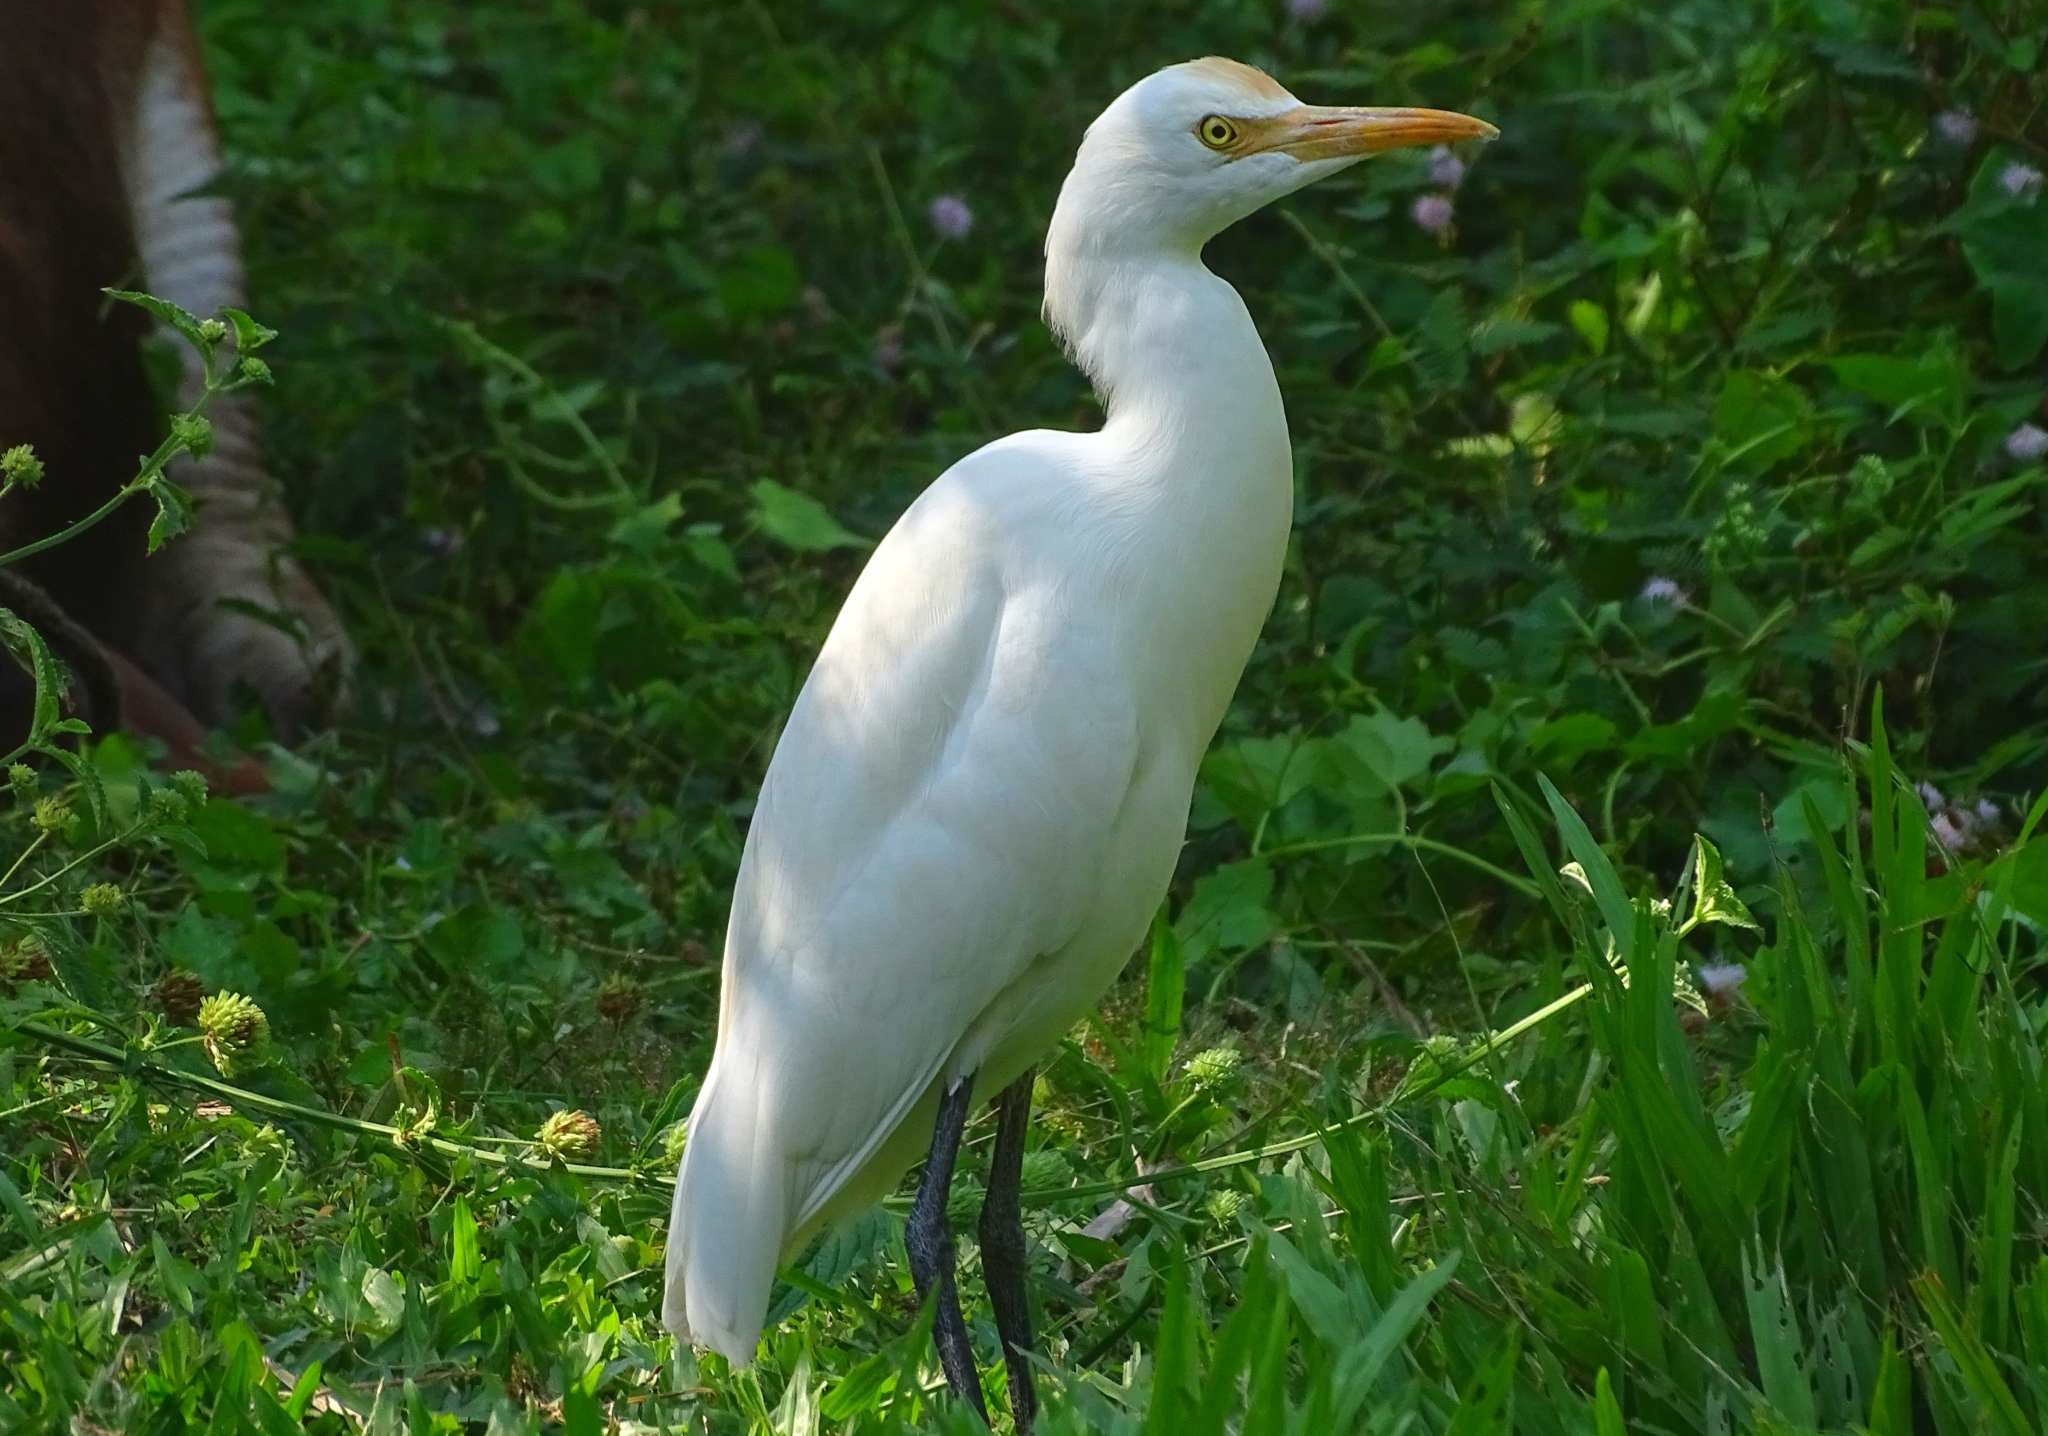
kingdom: Animalia
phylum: Chordata
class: Aves
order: Pelecaniformes
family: Ardeidae
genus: Bubulcus
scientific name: Bubulcus coromandus
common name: Eastern cattle egret
